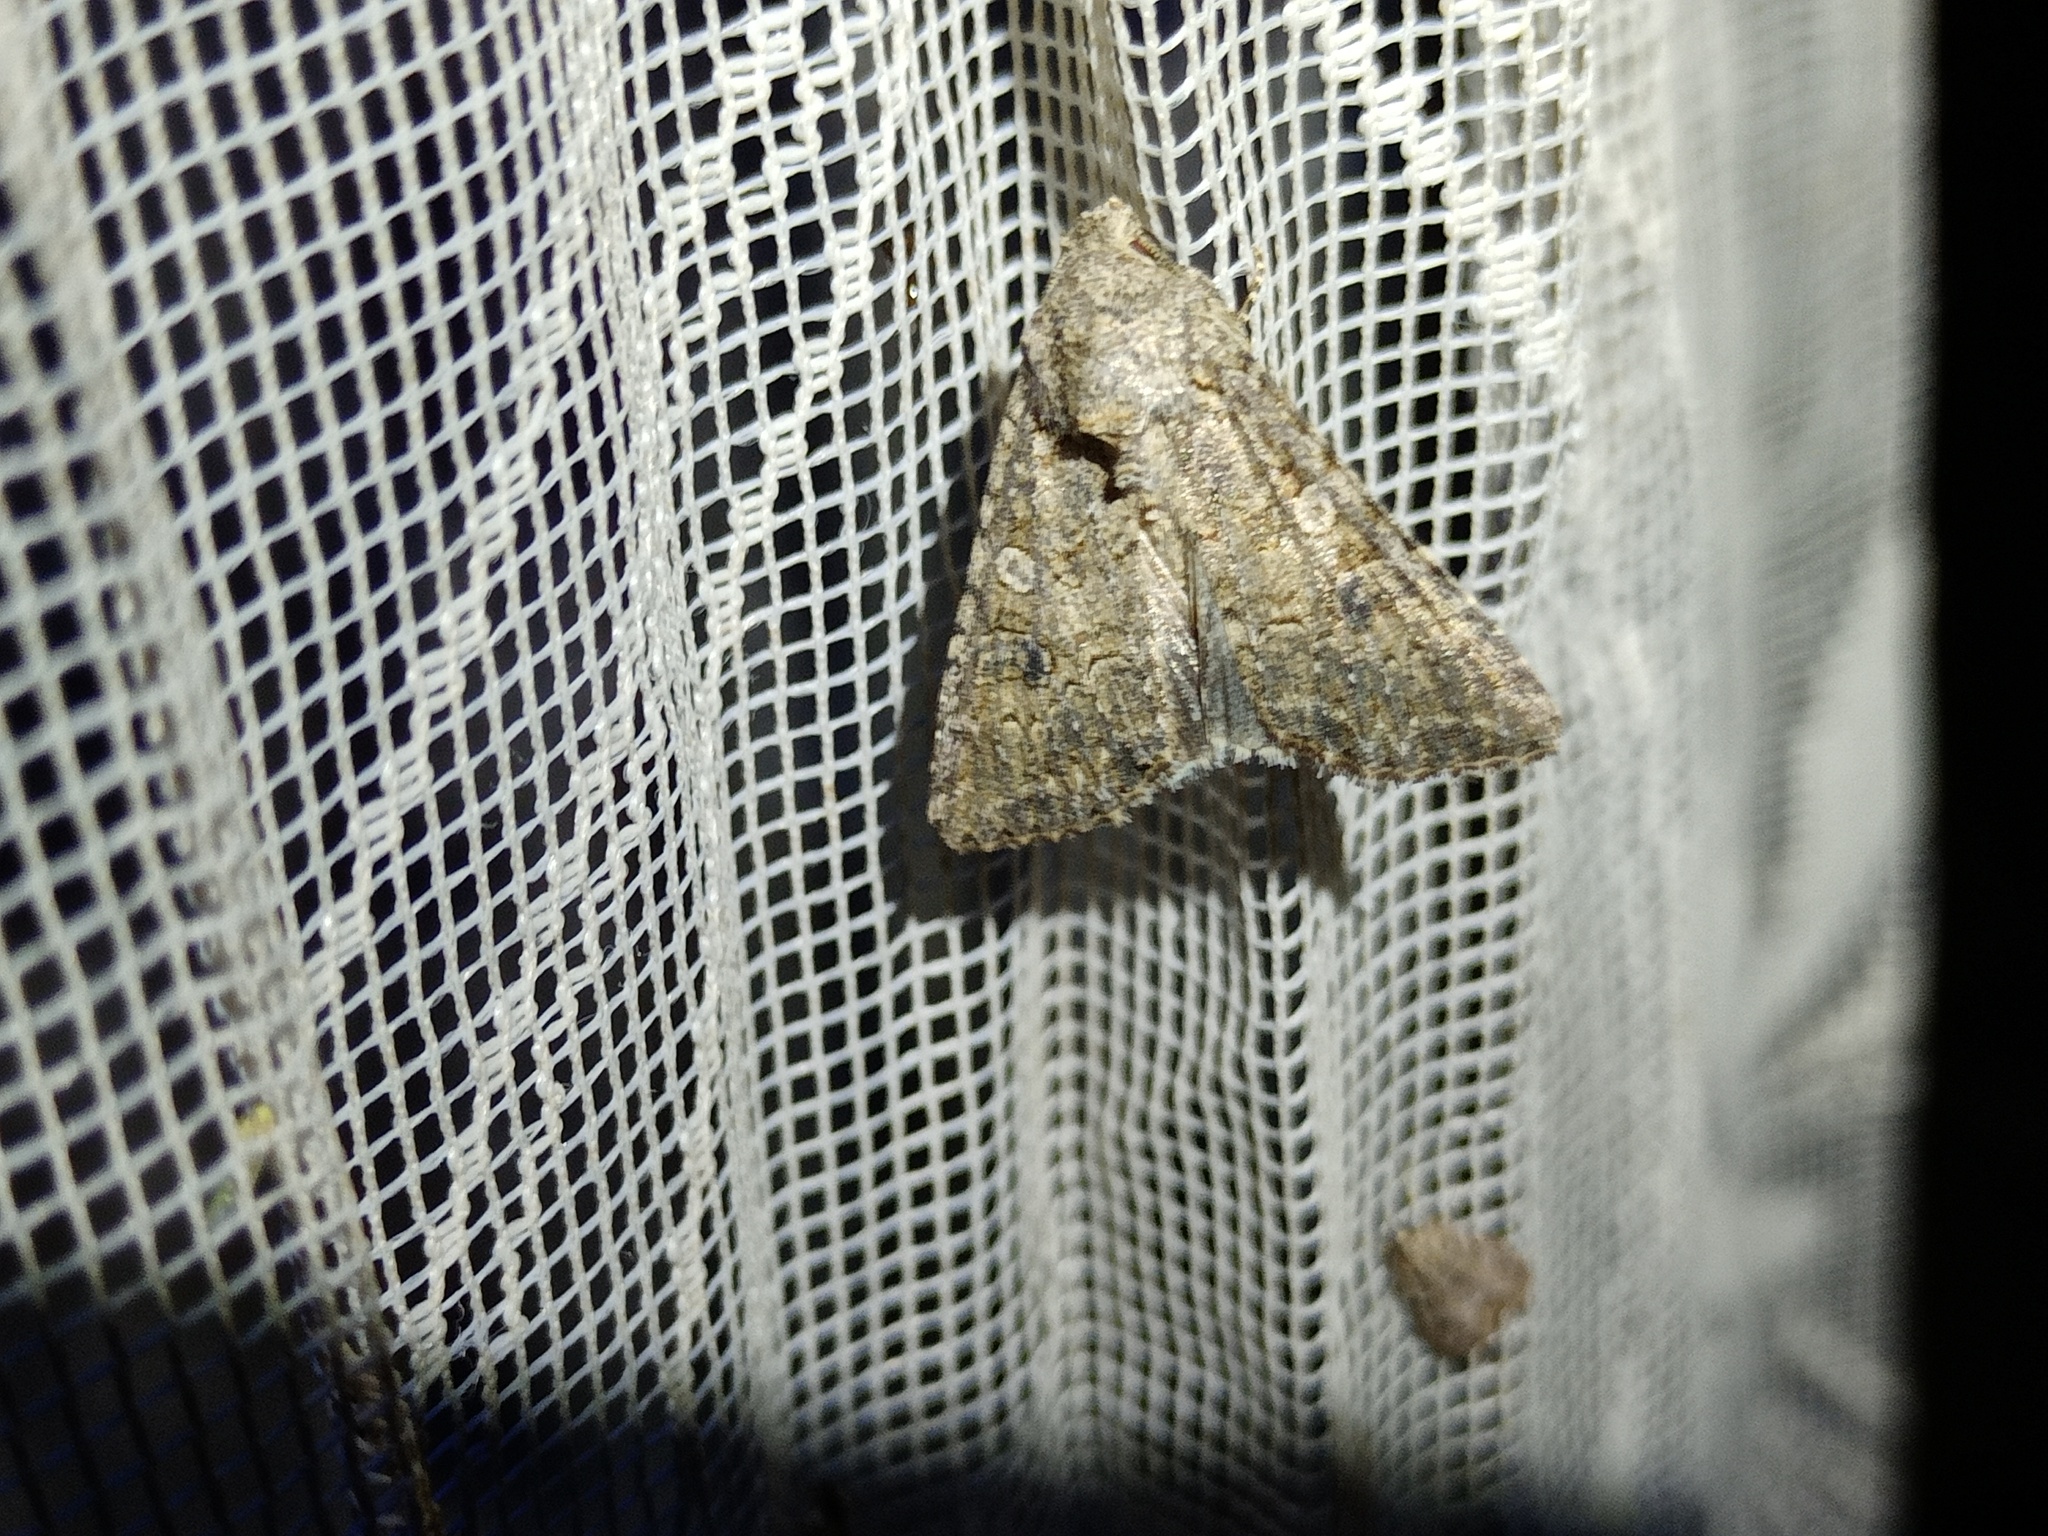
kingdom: Animalia
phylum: Arthropoda
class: Insecta
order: Lepidoptera
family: Noctuidae
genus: Anarta
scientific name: Anarta trifolii
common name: Clover cutworm moth
